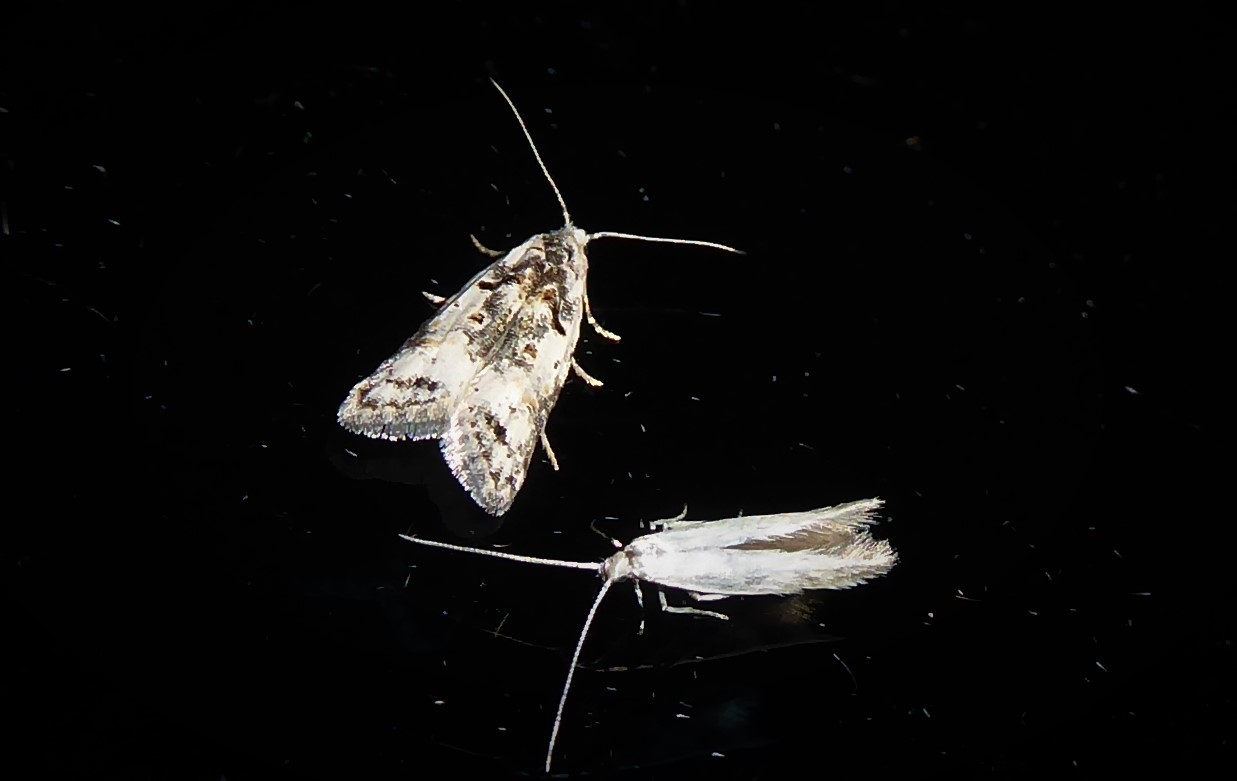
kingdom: Animalia
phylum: Arthropoda
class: Insecta
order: Lepidoptera
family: Carposinidae
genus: Carposina
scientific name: Carposina
